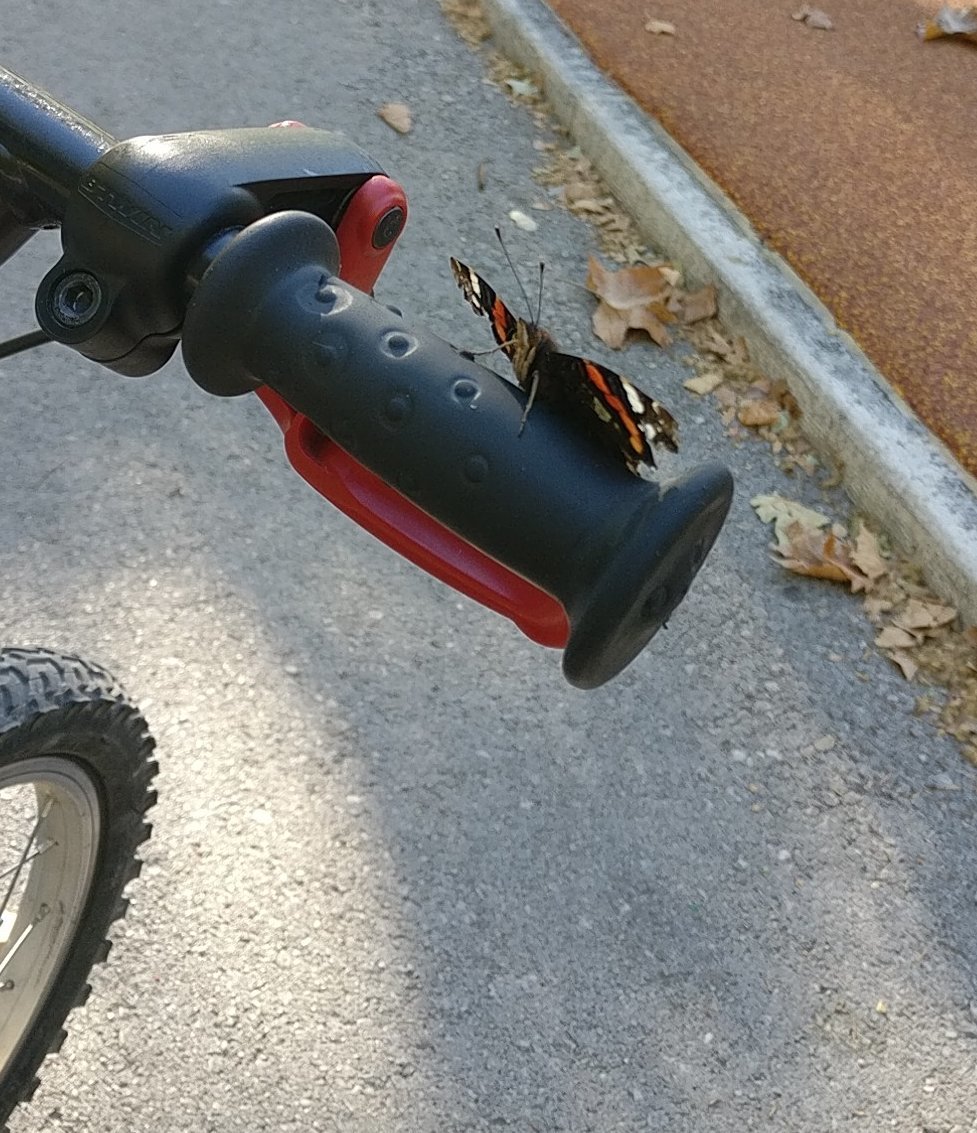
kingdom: Animalia
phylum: Arthropoda
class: Insecta
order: Lepidoptera
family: Nymphalidae
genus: Vanessa
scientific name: Vanessa atalanta
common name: Red admiral
